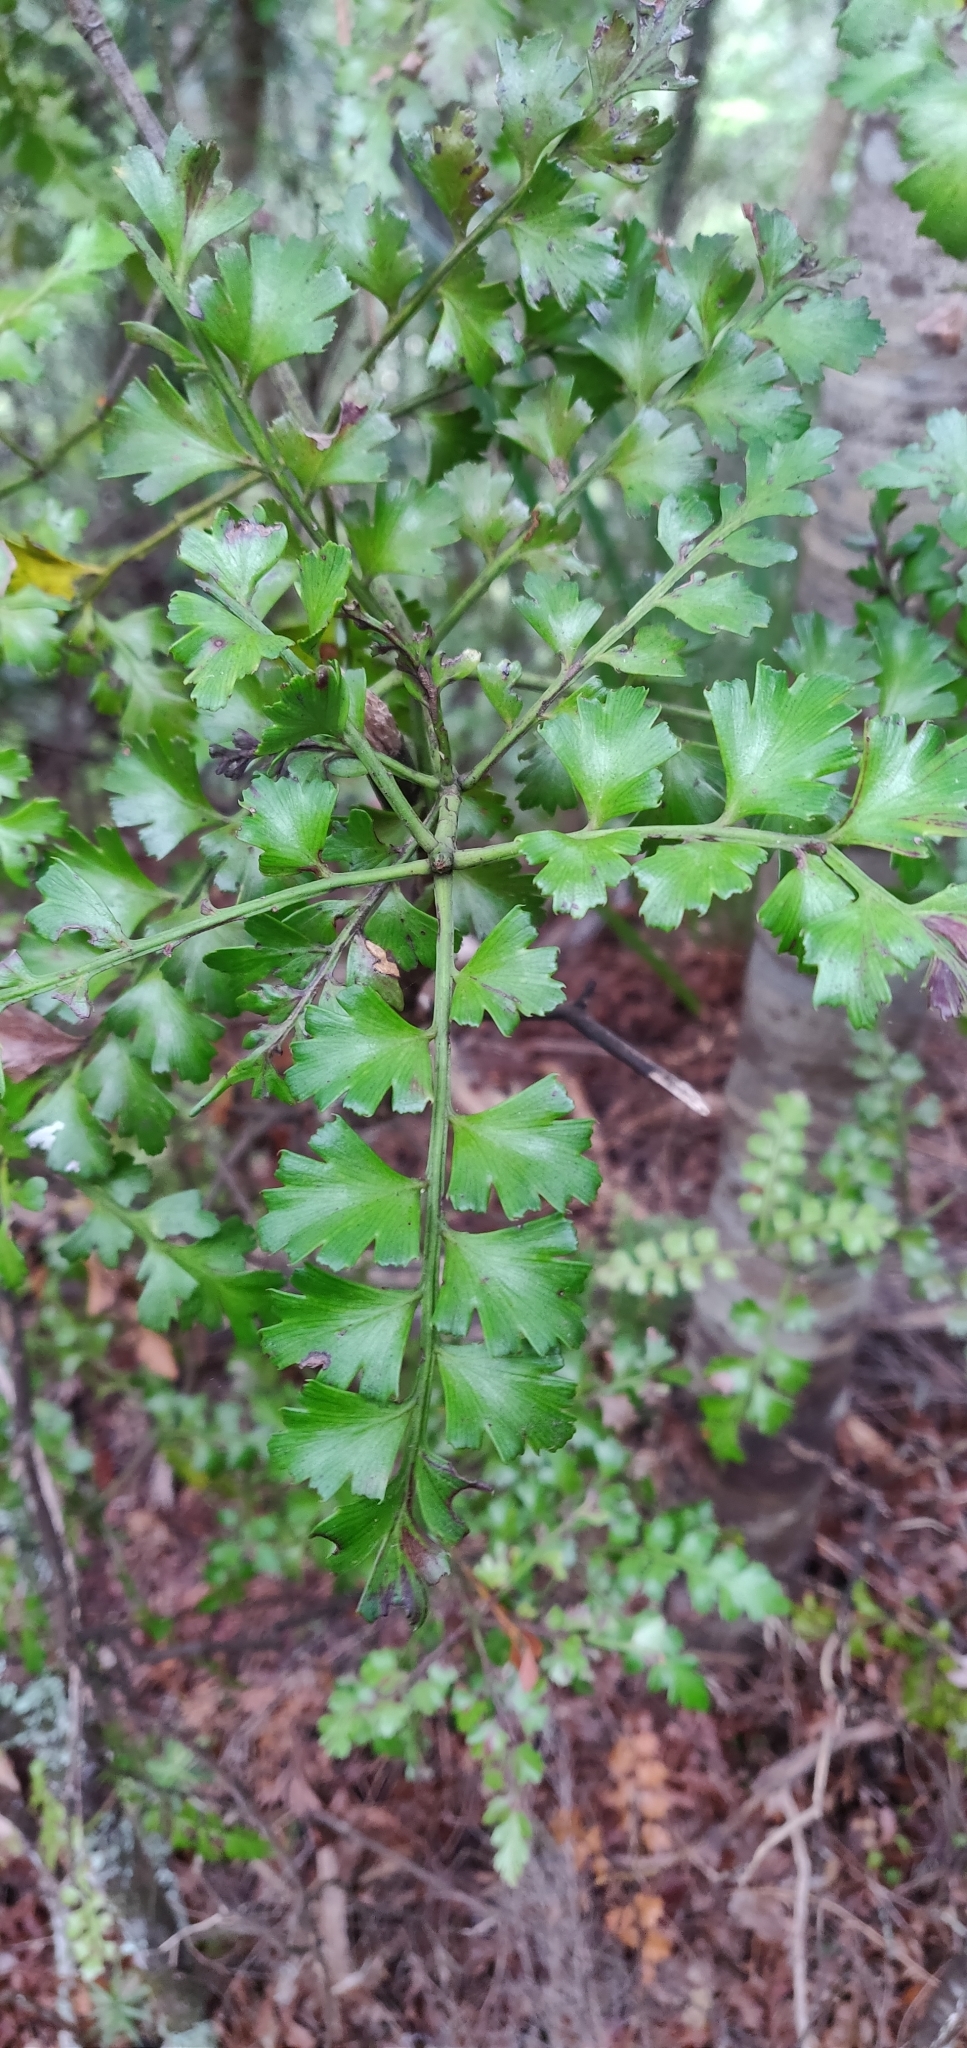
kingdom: Plantae
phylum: Tracheophyta
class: Pinopsida
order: Pinales
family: Phyllocladaceae
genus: Phyllocladus
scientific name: Phyllocladus trichomanoides
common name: Celery pine
